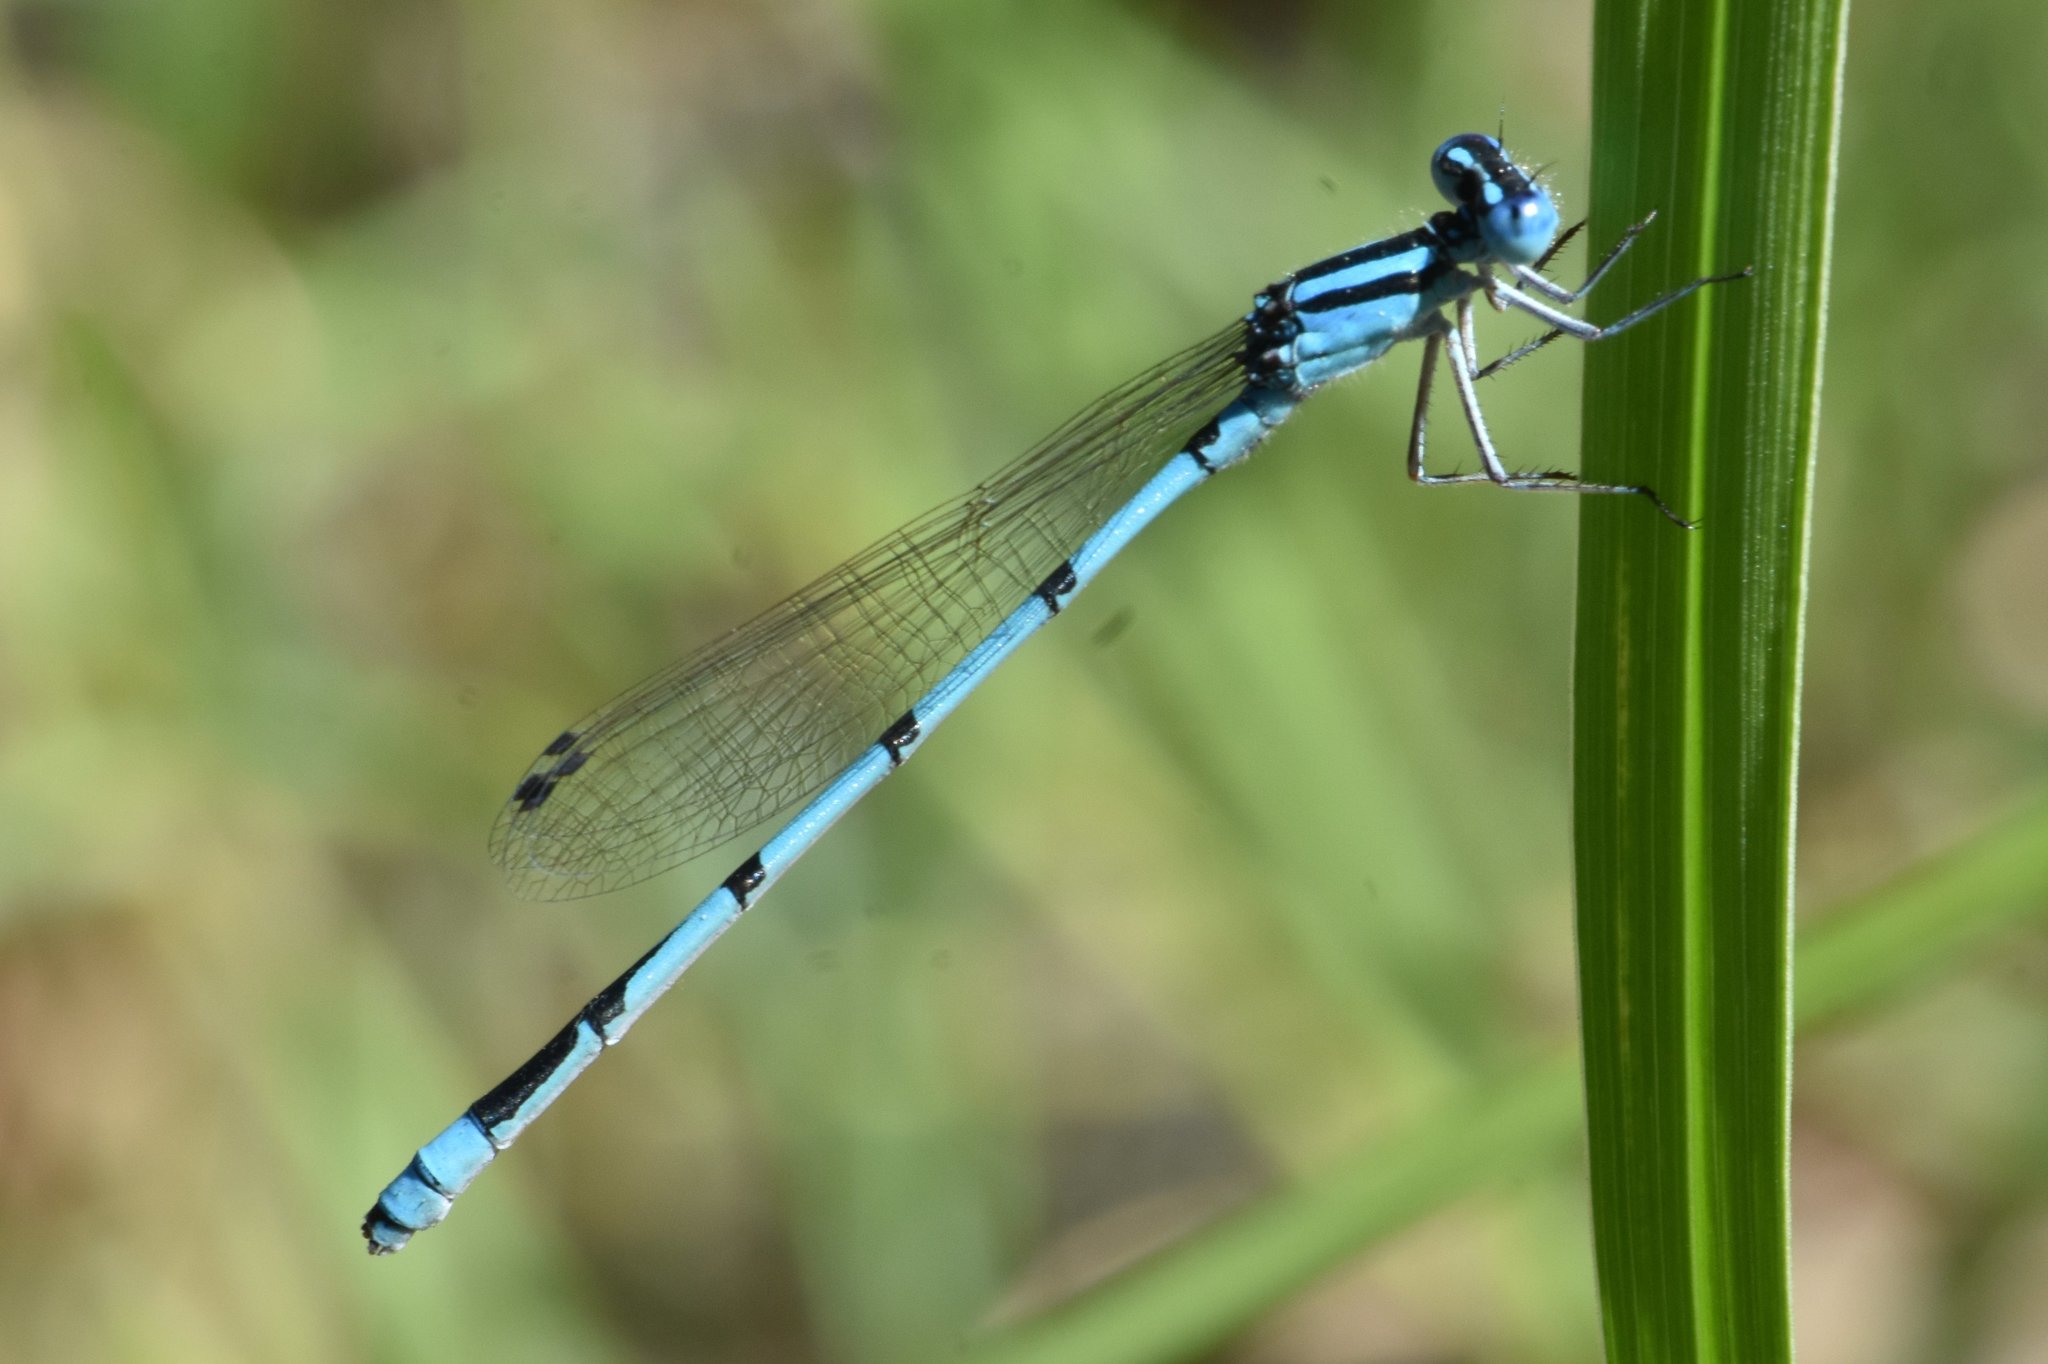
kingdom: Animalia
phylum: Arthropoda
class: Insecta
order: Odonata
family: Coenagrionidae
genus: Enallagma
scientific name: Enallagma doubledayi
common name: Atlantic bluet
